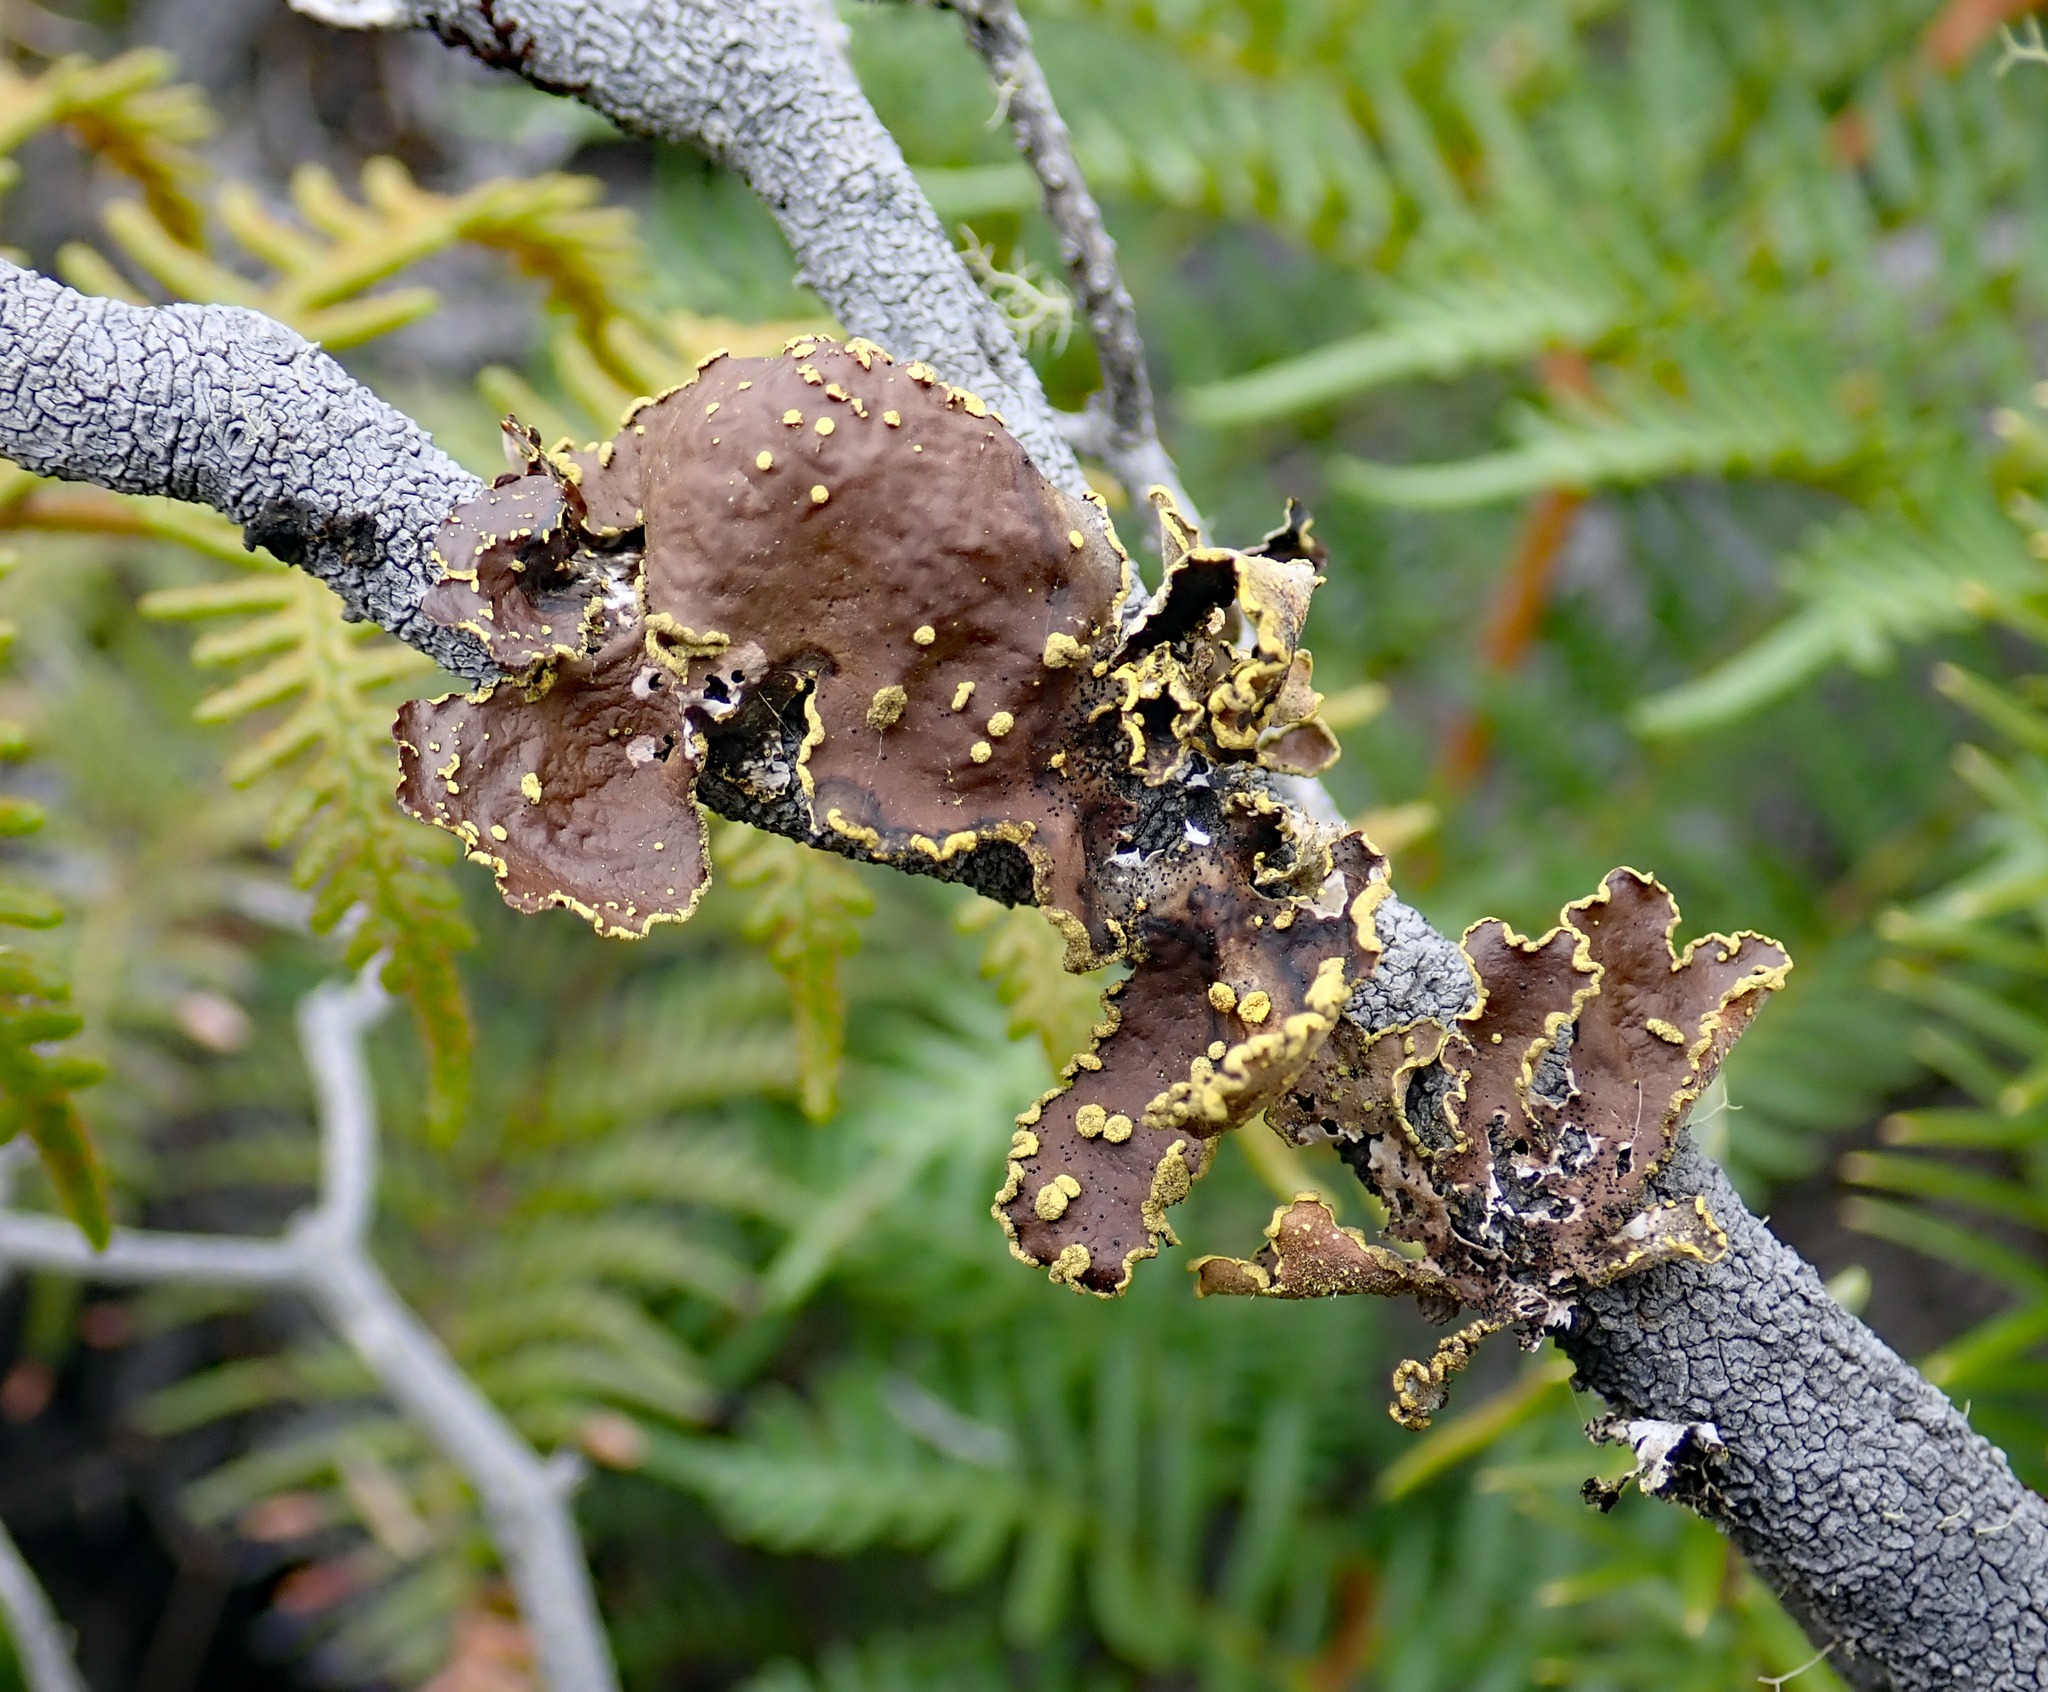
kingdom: Fungi
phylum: Ascomycota
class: Lecanoromycetes
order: Peltigerales
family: Lobariaceae
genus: Pseudocyphellaria
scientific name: Pseudocyphellaria crocata
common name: Golden specklebelly
